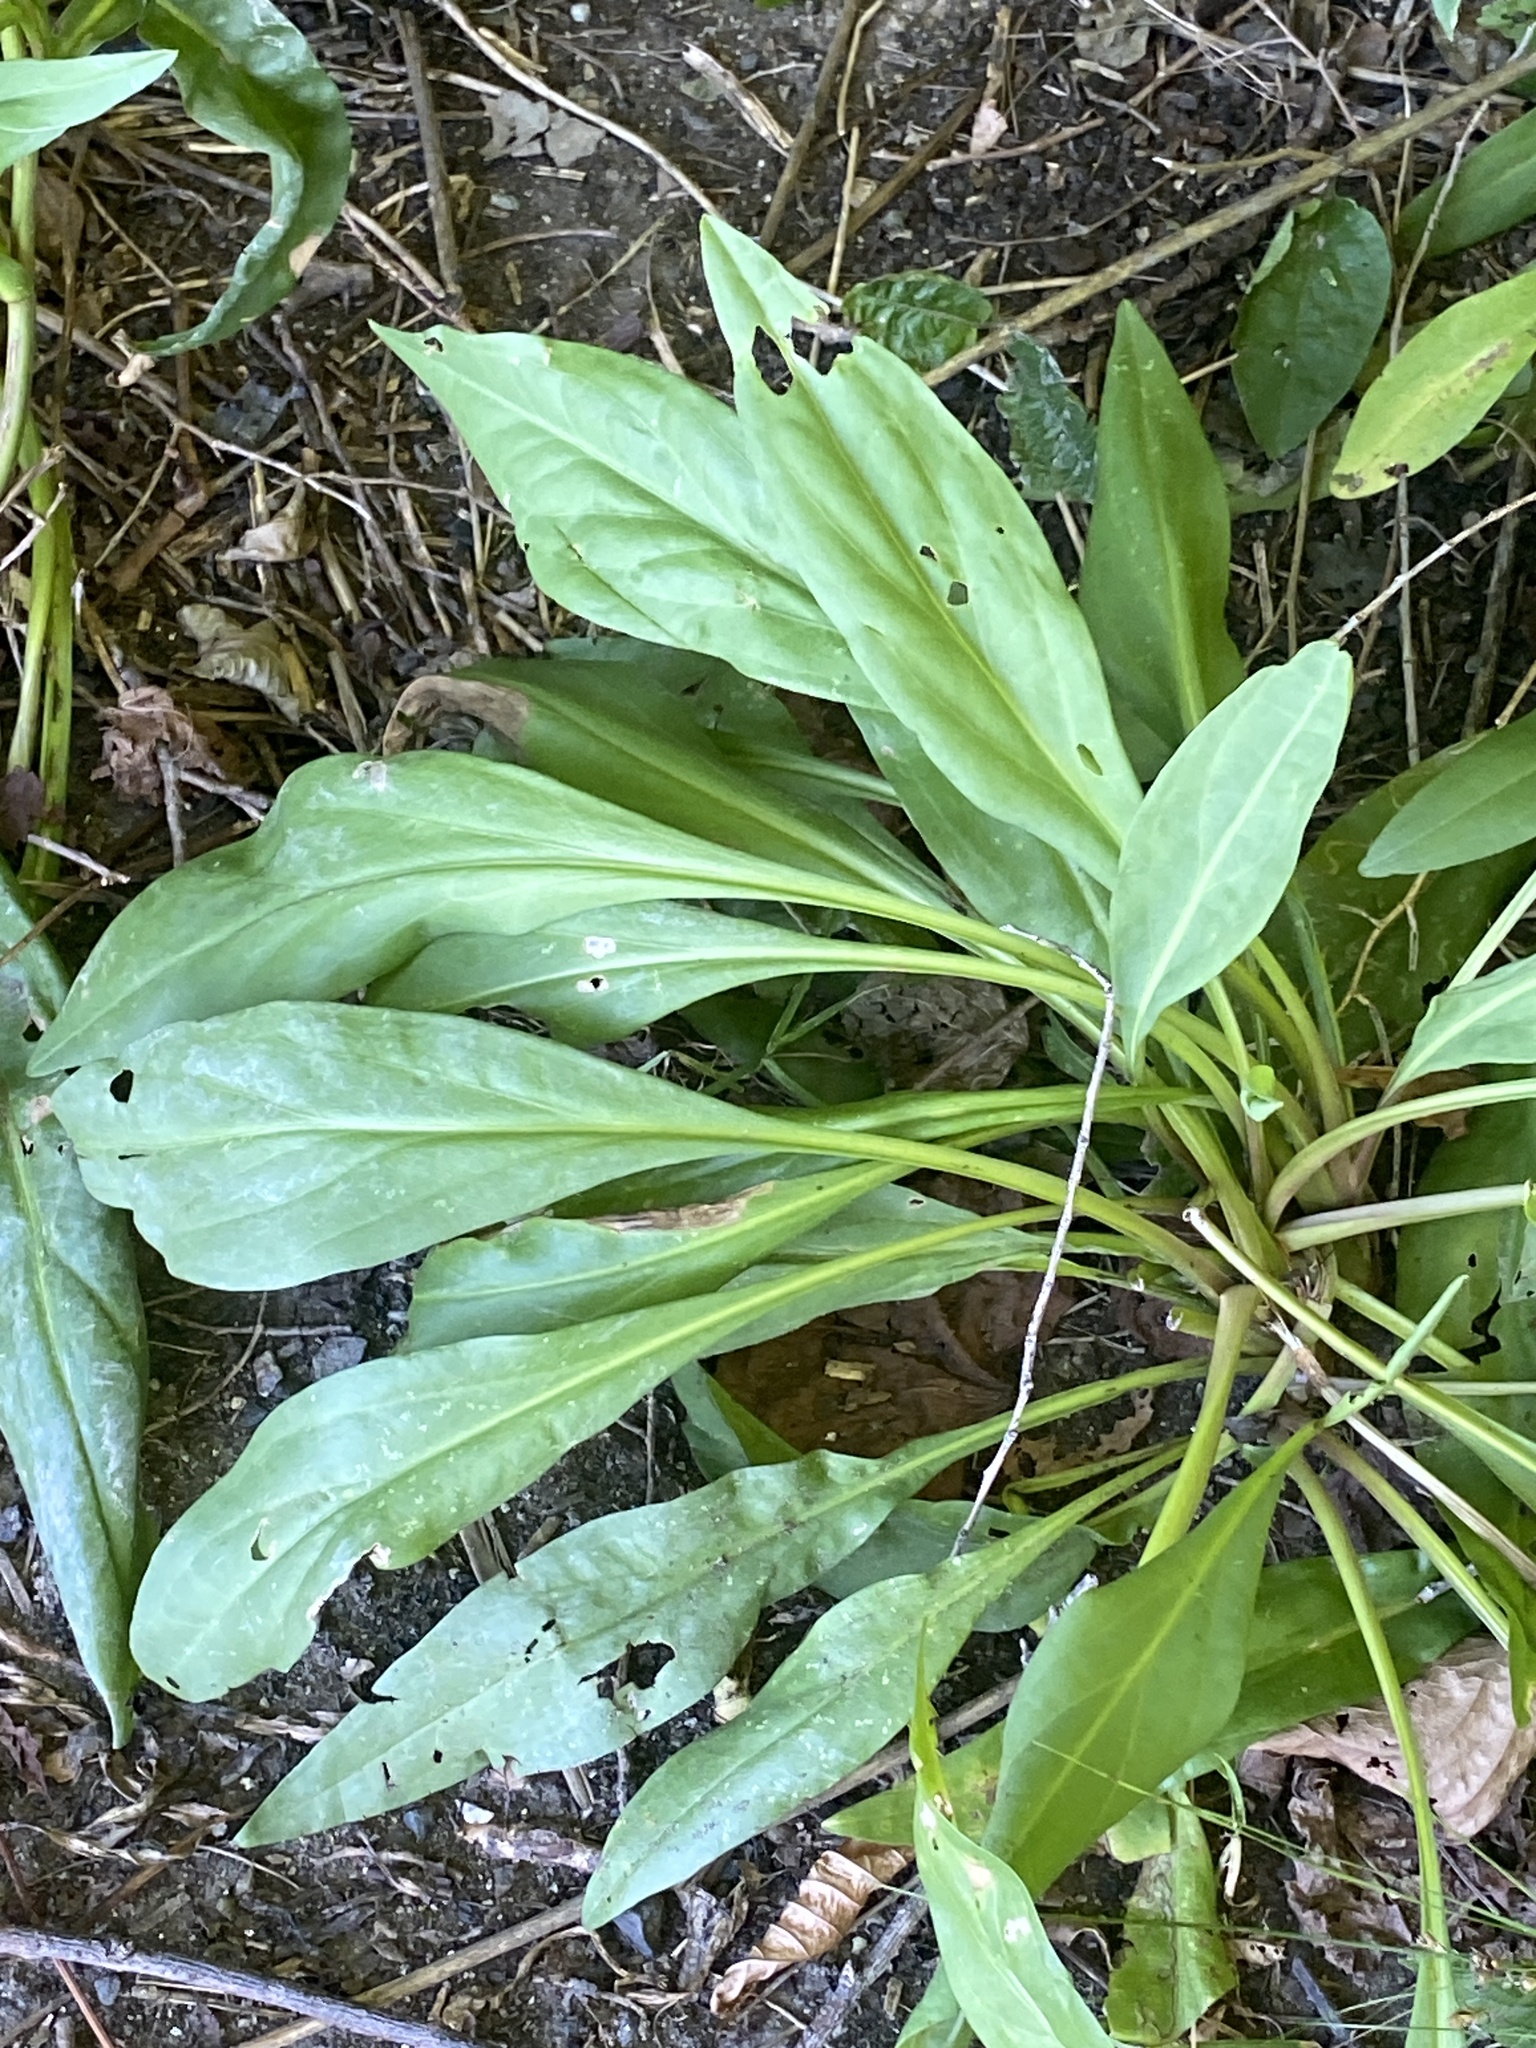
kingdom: Plantae
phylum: Tracheophyta
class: Magnoliopsida
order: Asterales
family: Asteraceae
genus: Solidago
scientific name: Solidago sempervirens
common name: Salt-marsh goldenrod
